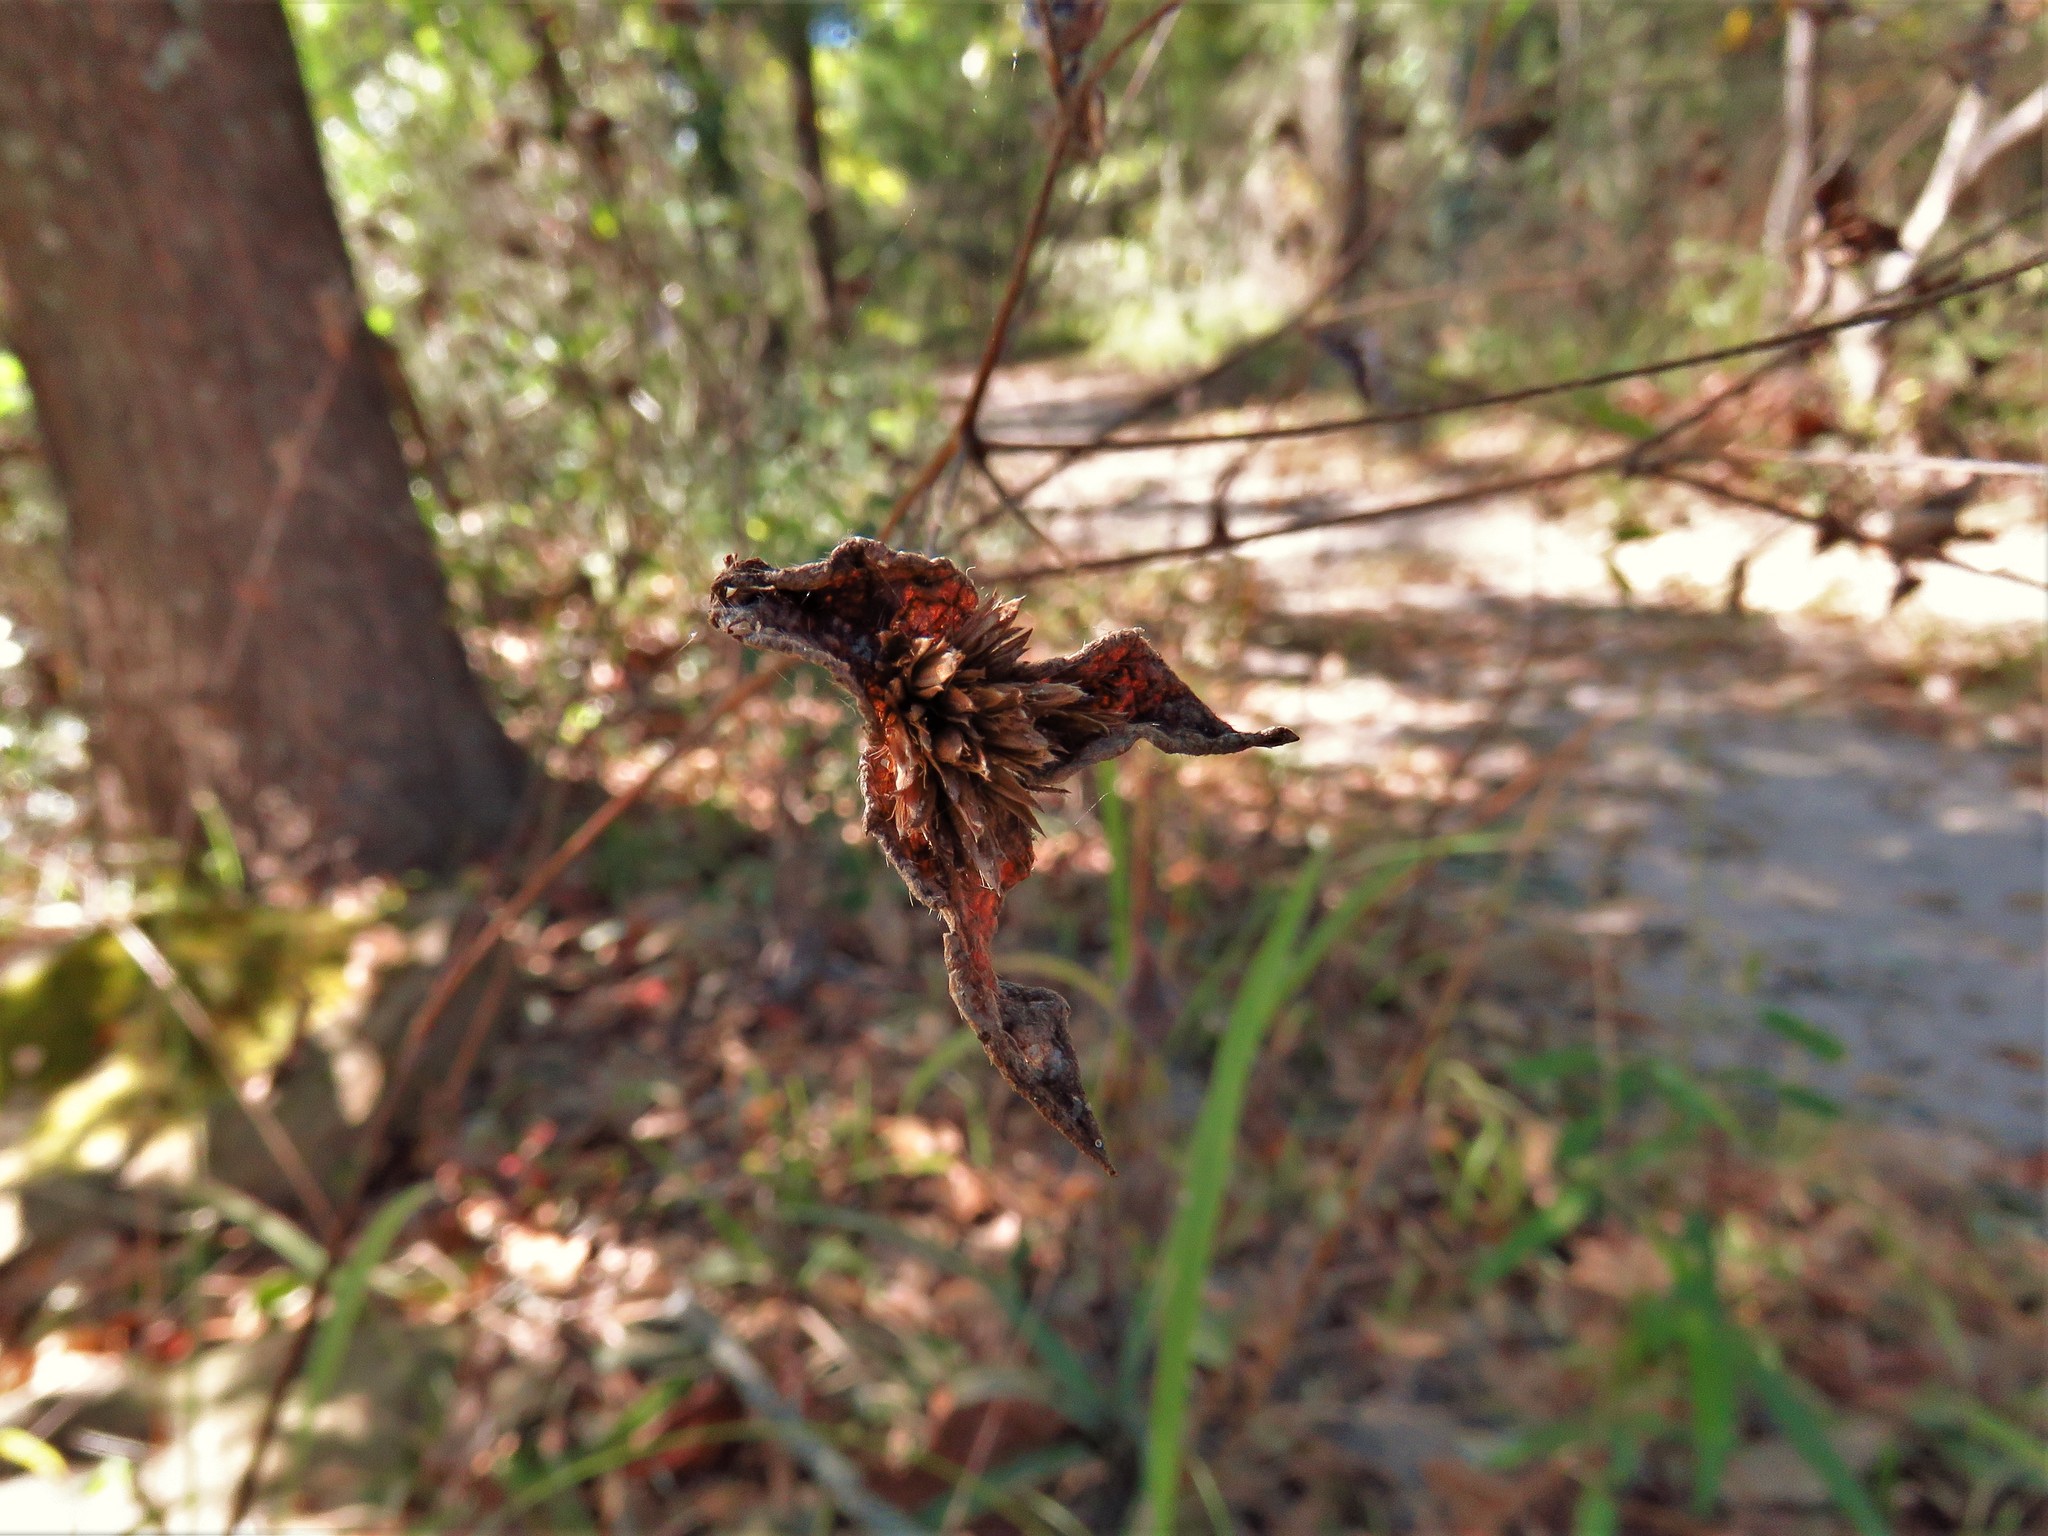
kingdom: Plantae
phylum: Tracheophyta
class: Magnoliopsida
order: Asterales
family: Asteraceae
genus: Elephantopus
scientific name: Elephantopus carolinianus
